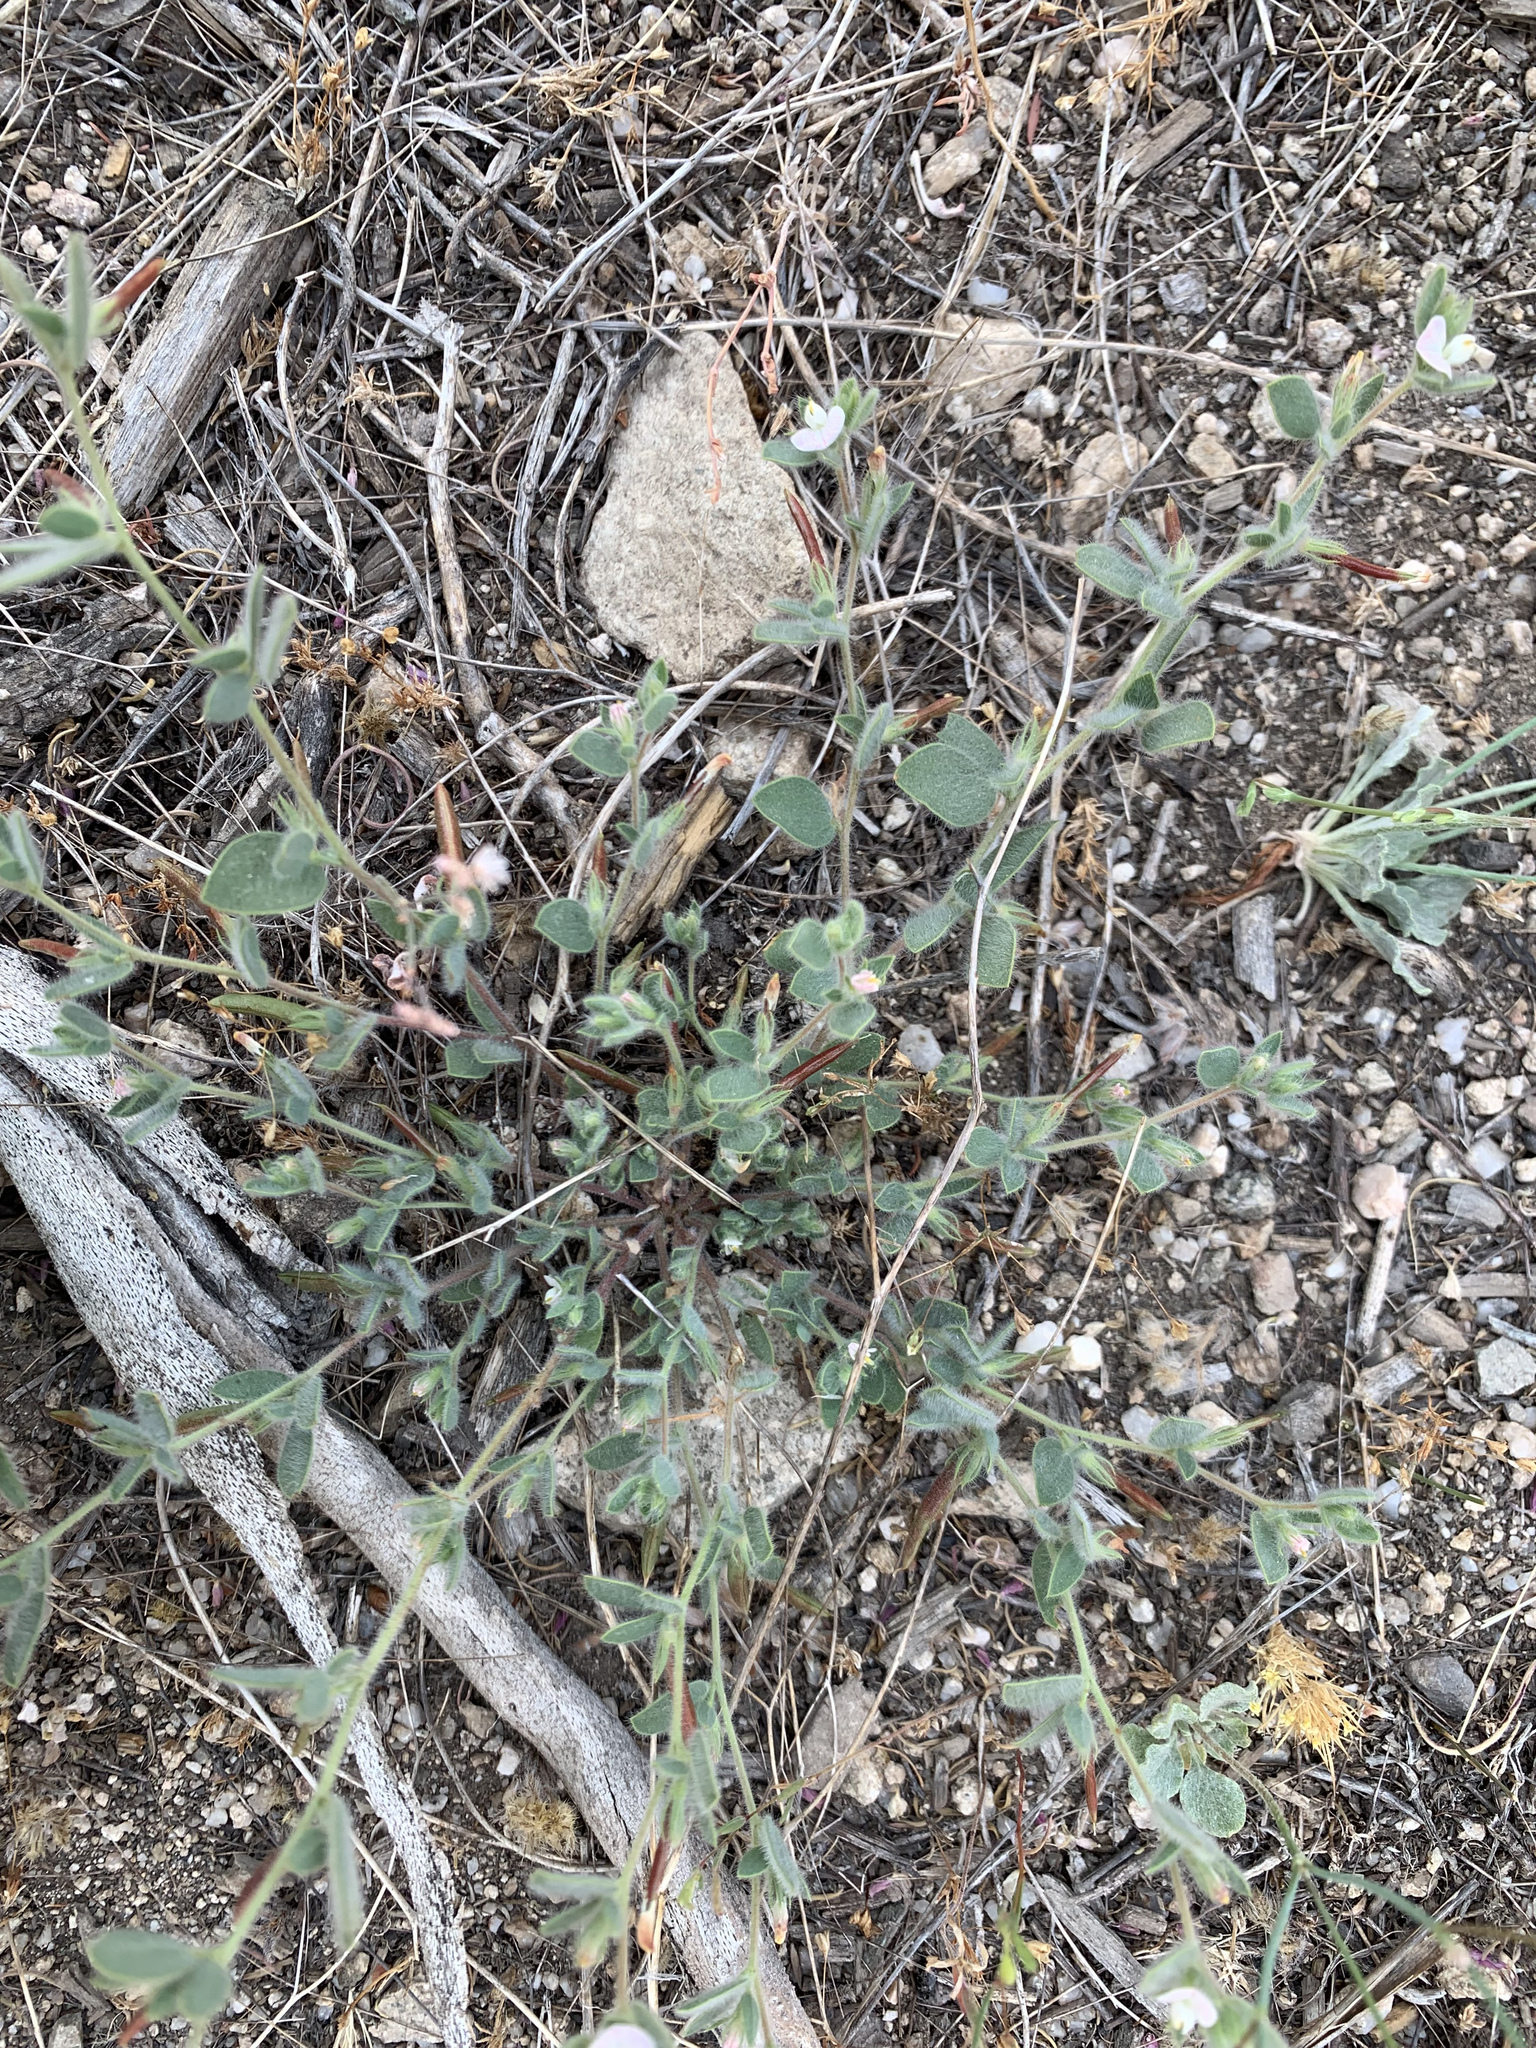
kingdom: Plantae
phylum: Tracheophyta
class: Magnoliopsida
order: Fabales
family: Fabaceae
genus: Acmispon
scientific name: Acmispon americanus
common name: American bird's-foot trefoil
